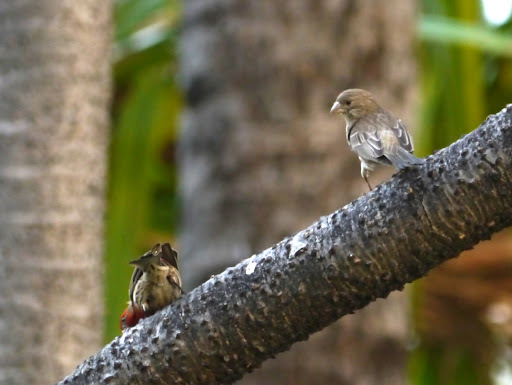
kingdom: Animalia
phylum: Chordata
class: Aves
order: Passeriformes
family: Fringillidae
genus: Haemorhous
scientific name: Haemorhous mexicanus
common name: House finch
